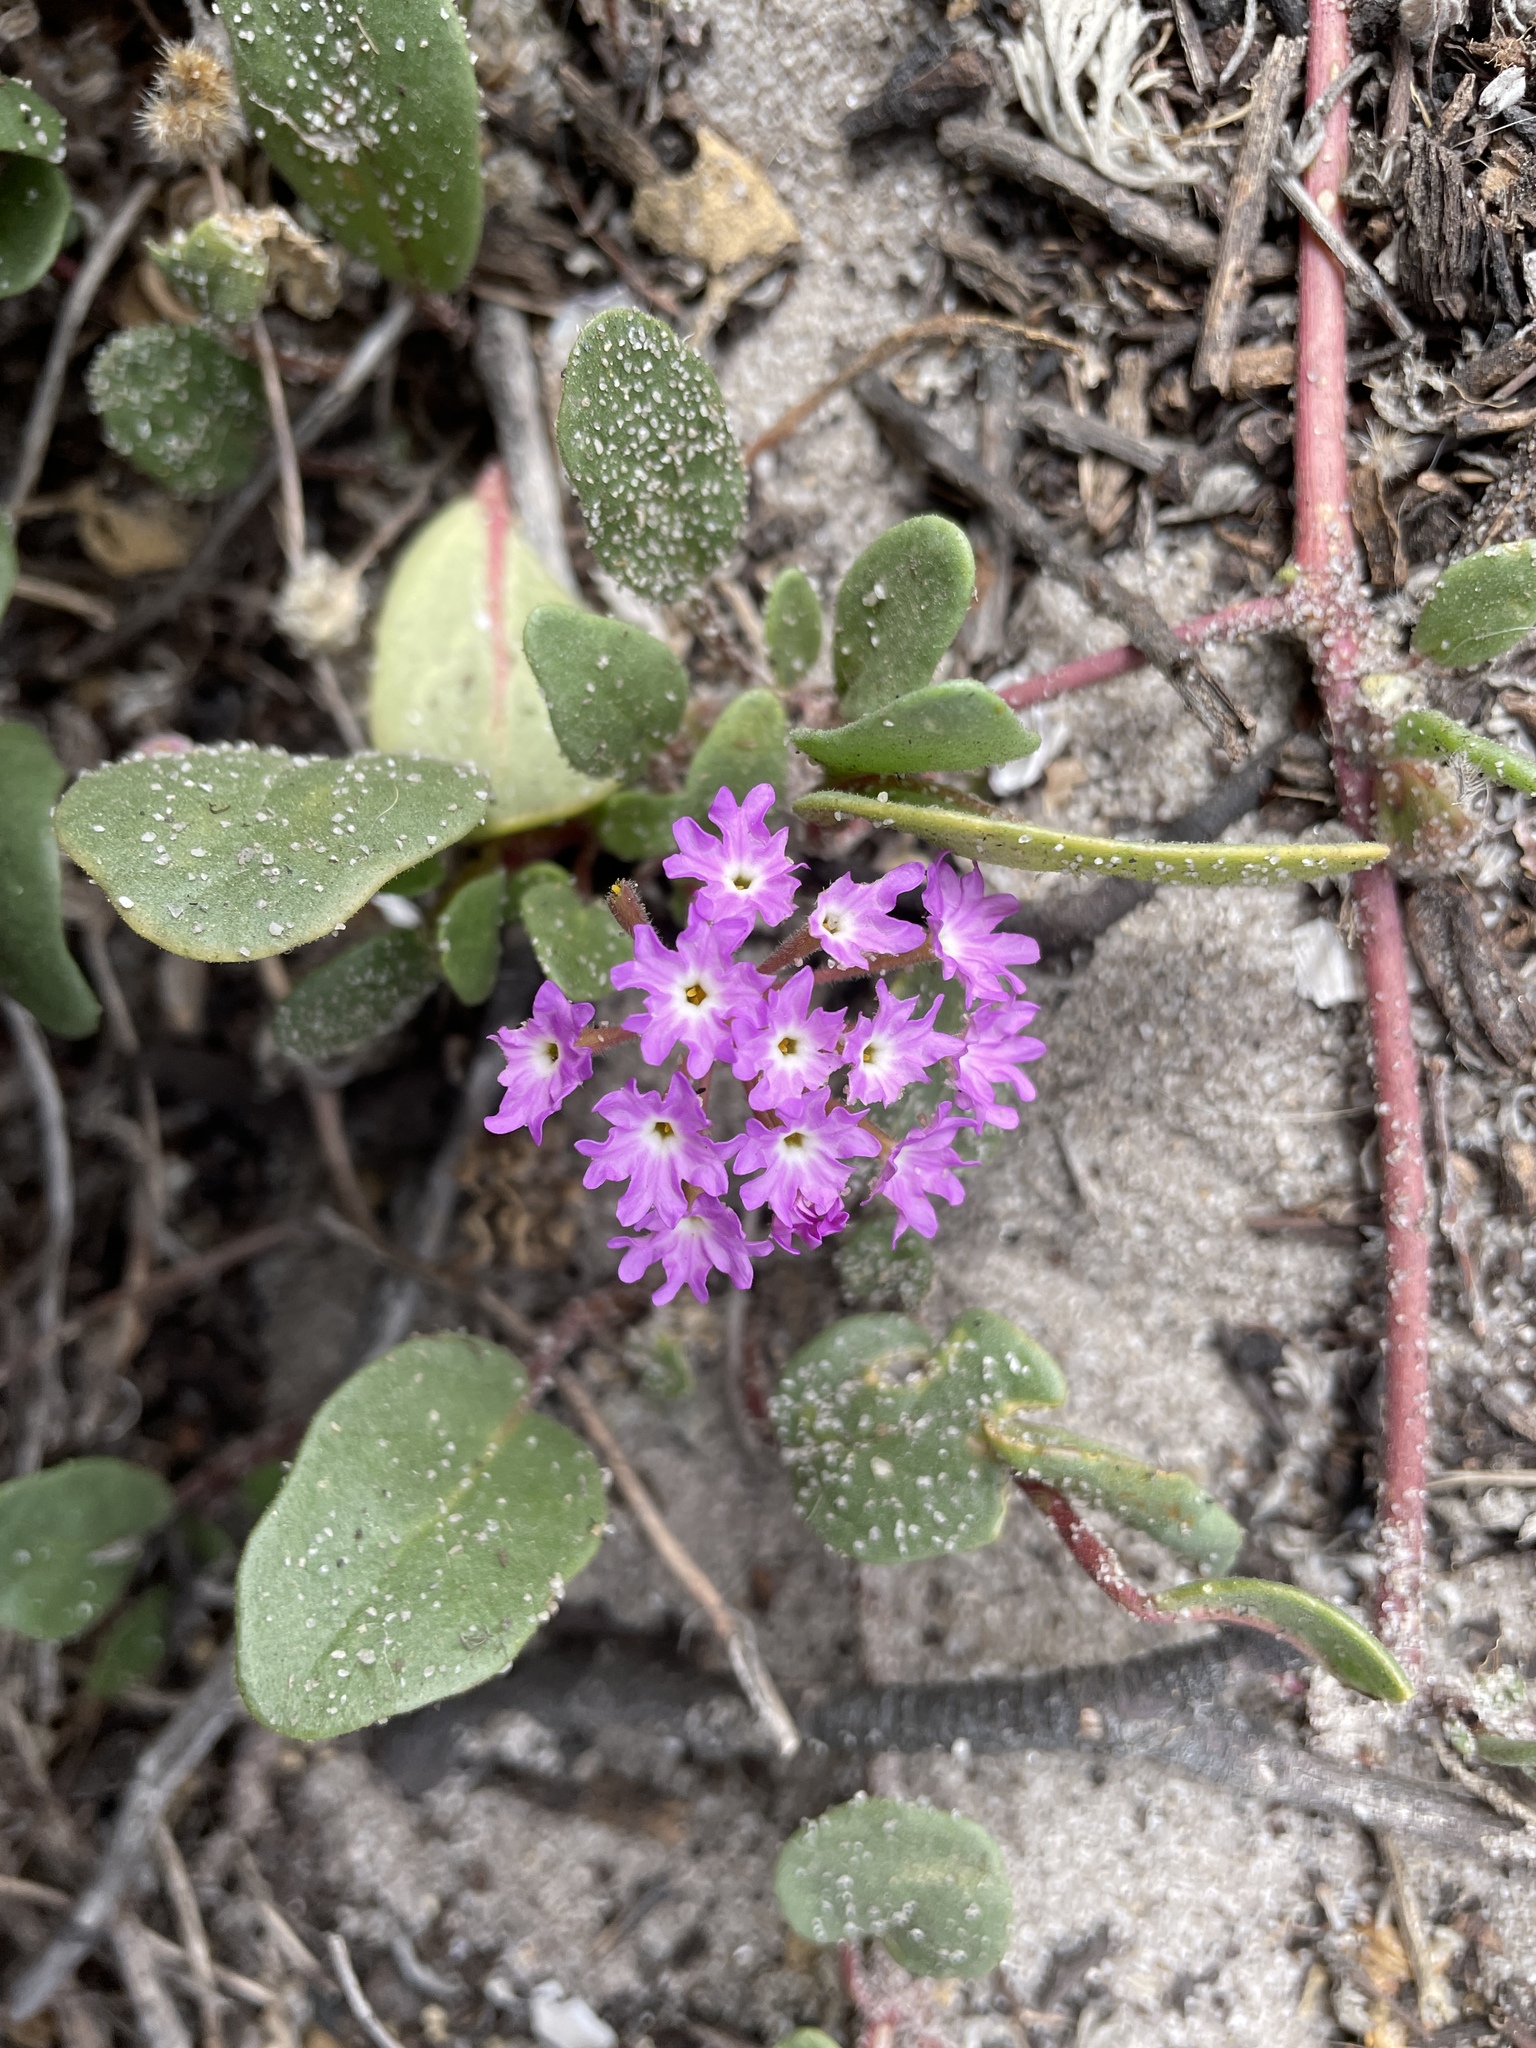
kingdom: Plantae
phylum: Tracheophyta
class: Magnoliopsida
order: Caryophyllales
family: Nyctaginaceae
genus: Abronia
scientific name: Abronia umbellata
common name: Sand-verbena
